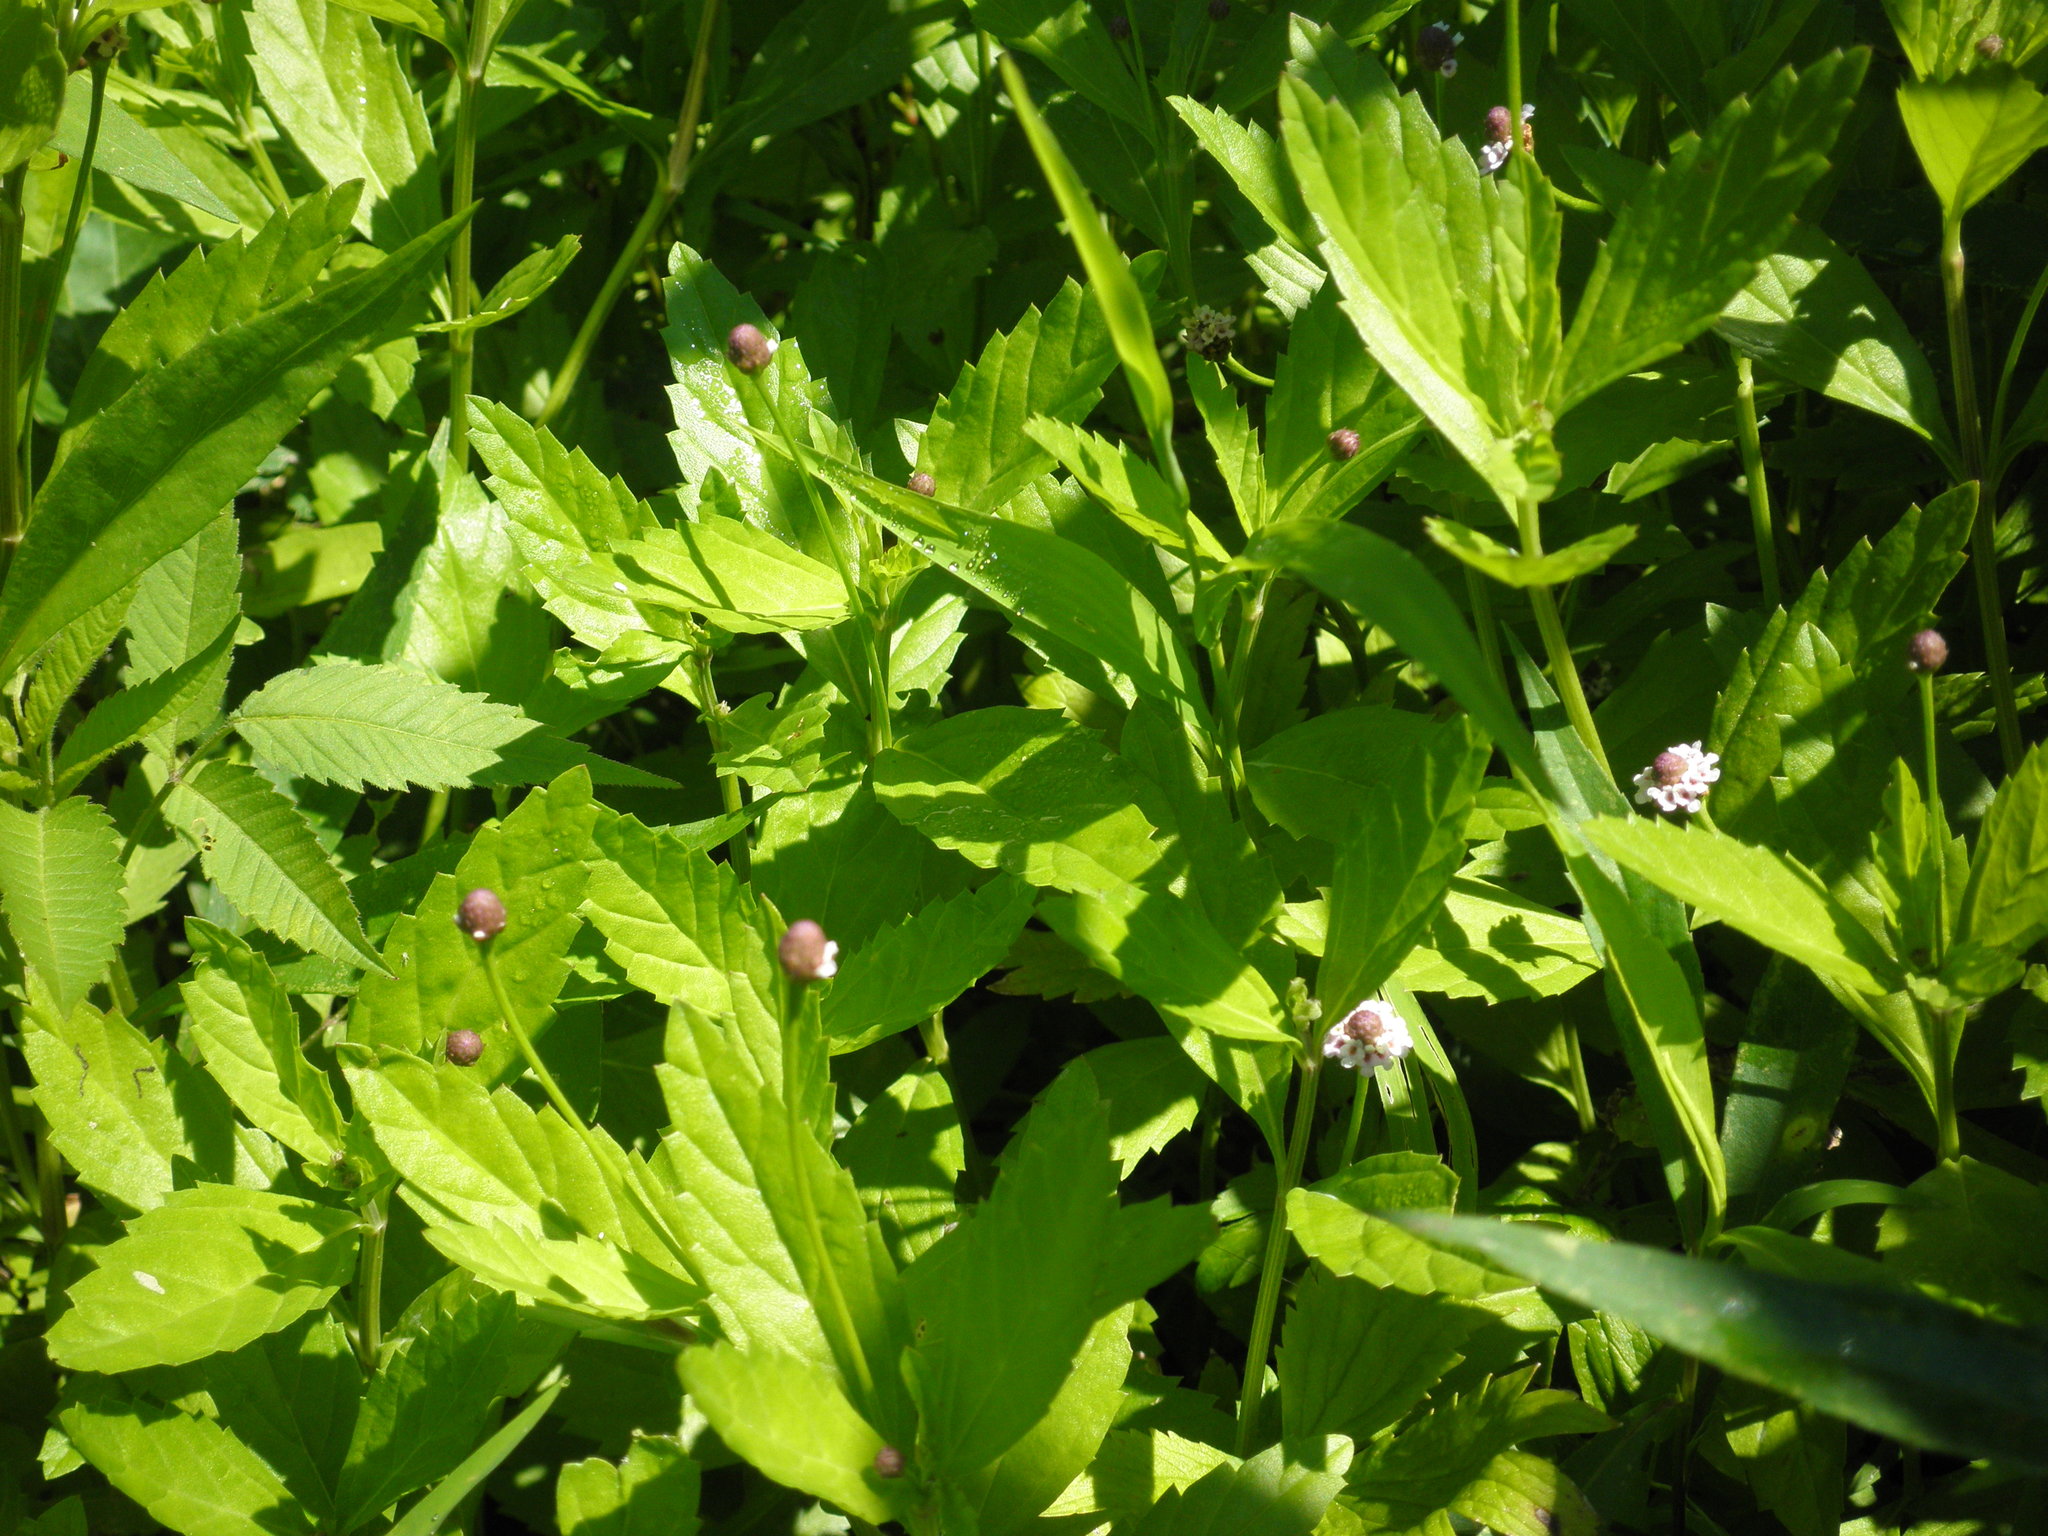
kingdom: Plantae
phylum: Tracheophyta
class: Magnoliopsida
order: Lamiales
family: Verbenaceae
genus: Phyla
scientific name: Phyla lanceolata
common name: Northern fogfruit
